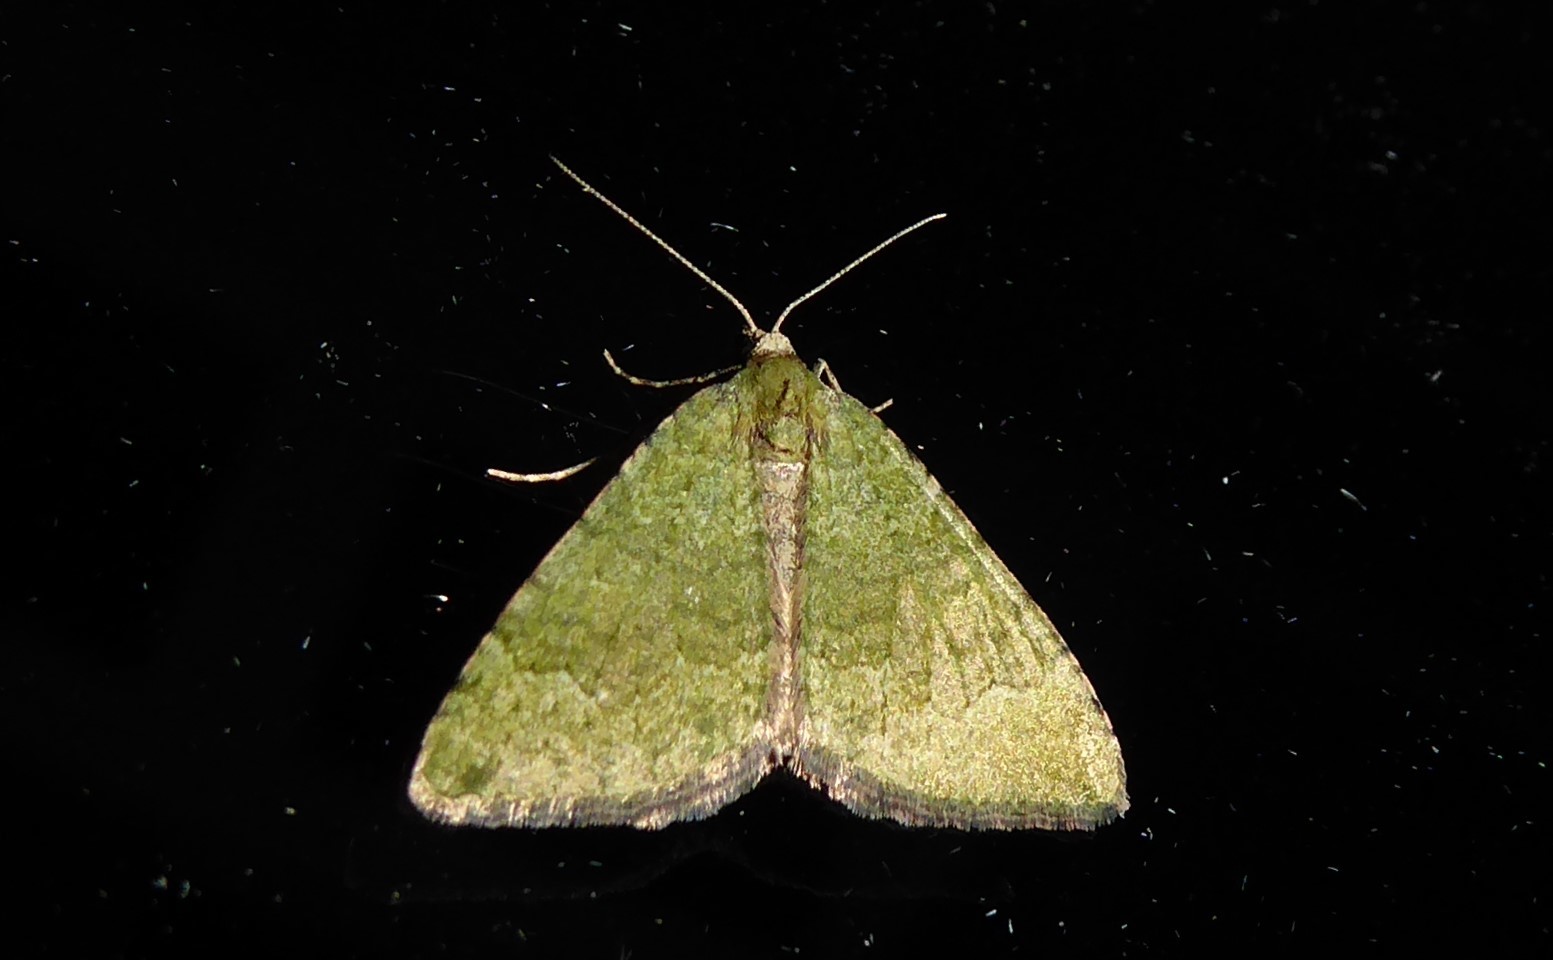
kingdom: Animalia
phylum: Arthropoda
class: Insecta
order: Lepidoptera
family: Geometridae
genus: Epyaxa
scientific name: Epyaxa rosearia
